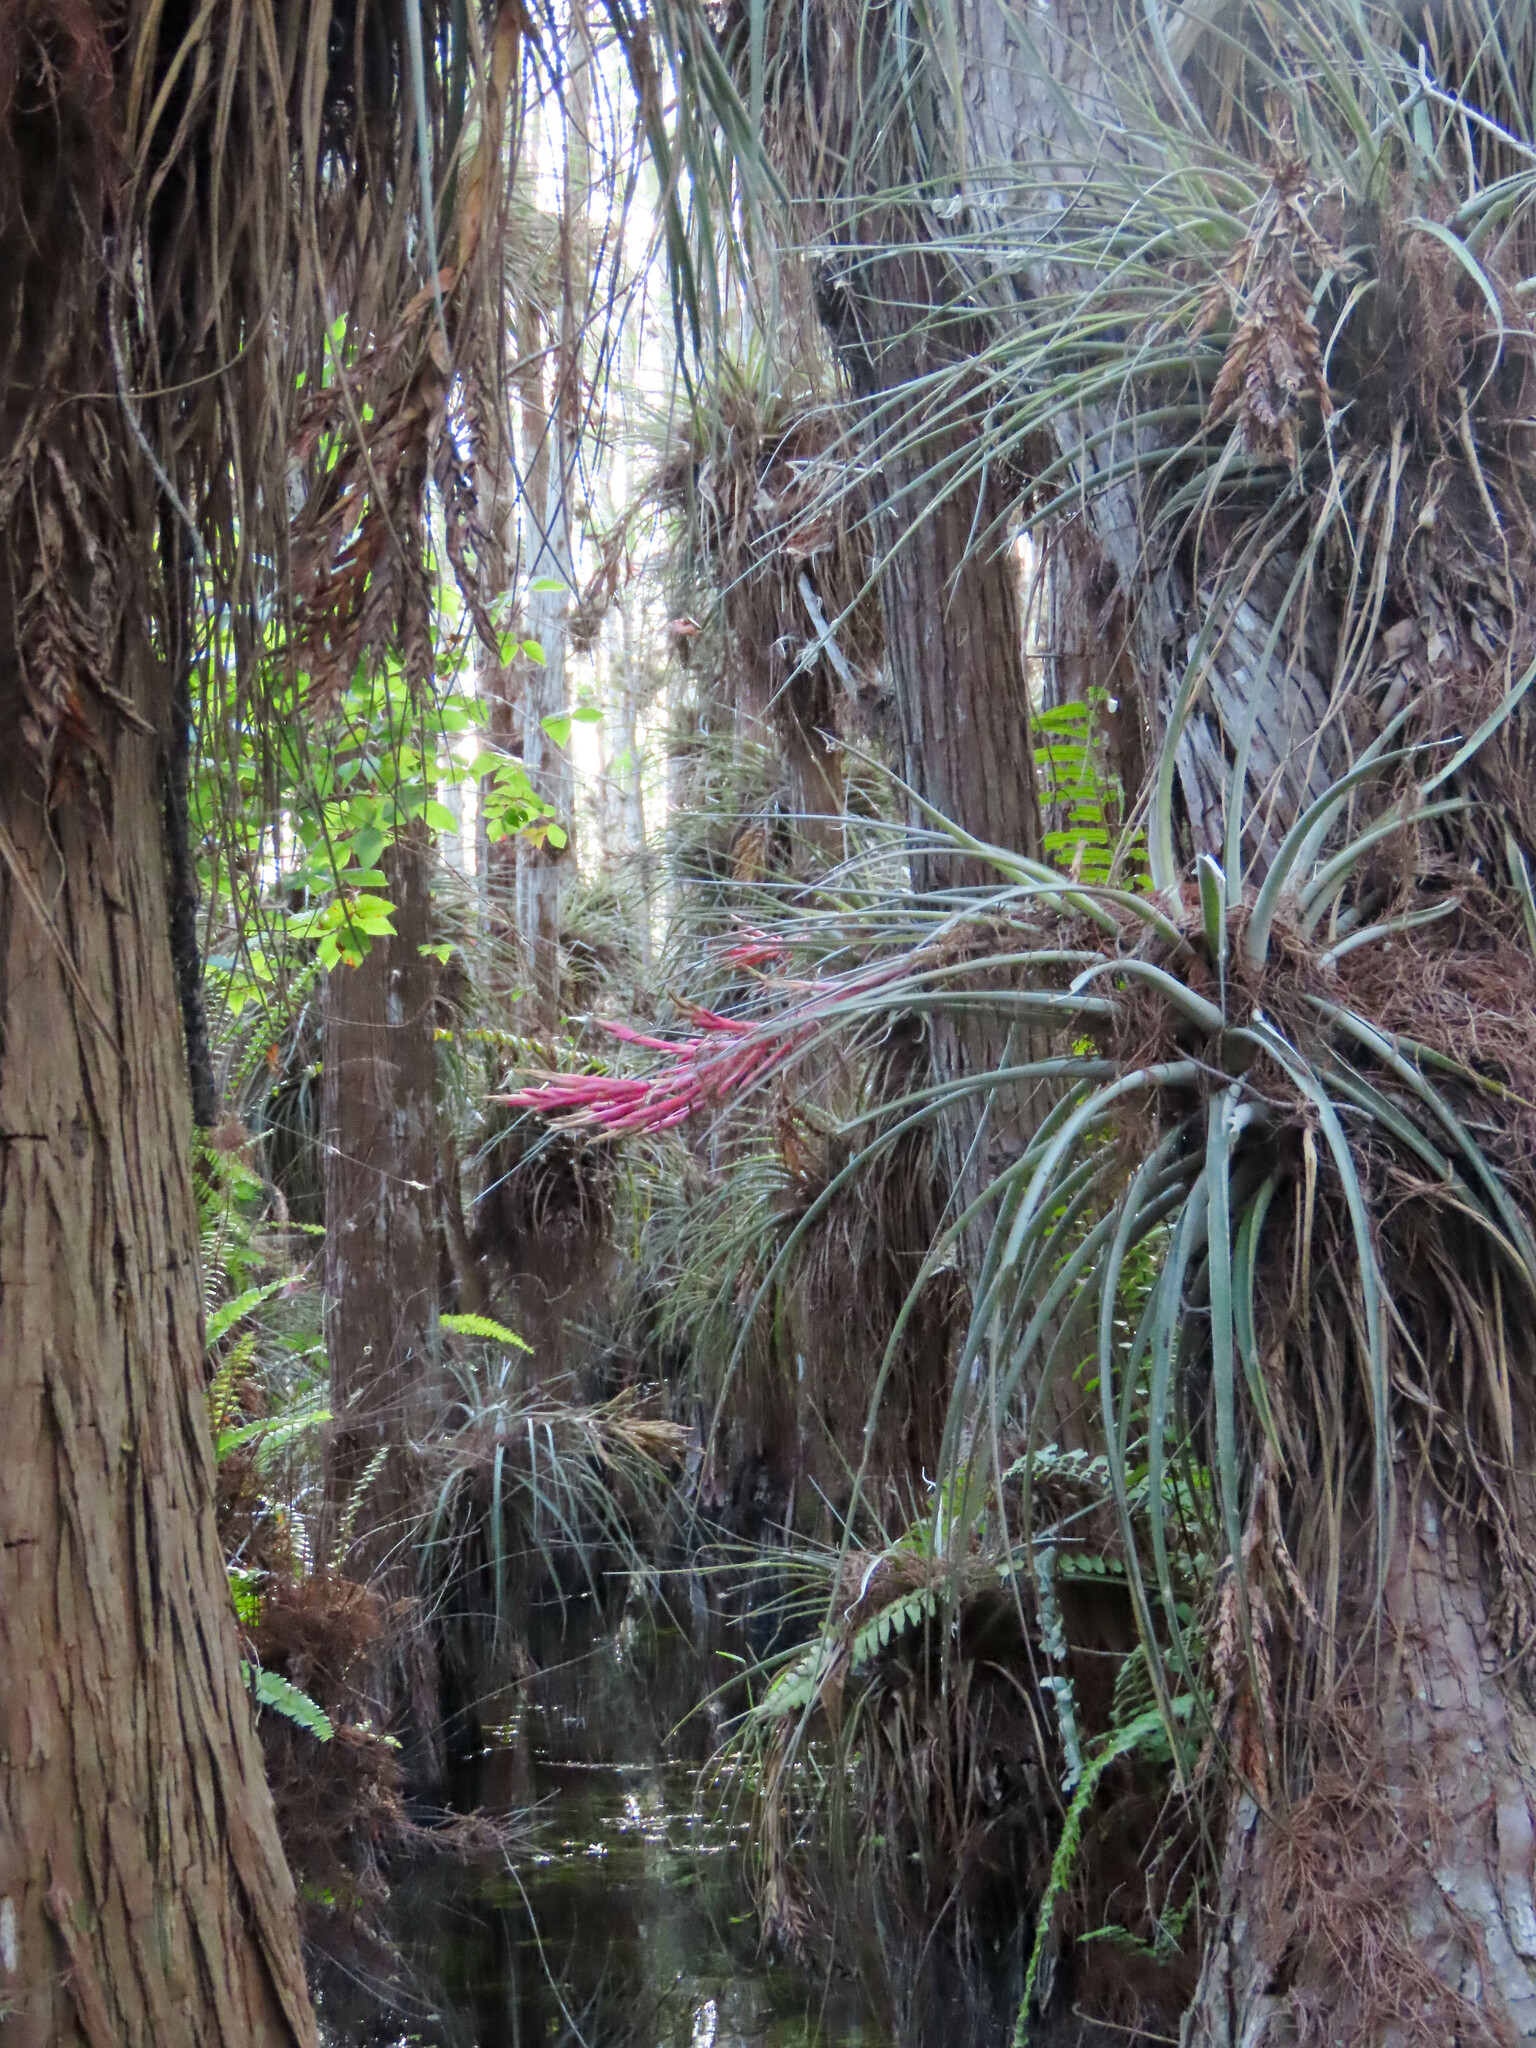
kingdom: Plantae
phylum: Tracheophyta
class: Liliopsida
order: Poales
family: Bromeliaceae
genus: Tillandsia
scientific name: Tillandsia fasciculata
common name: Giant airplant
